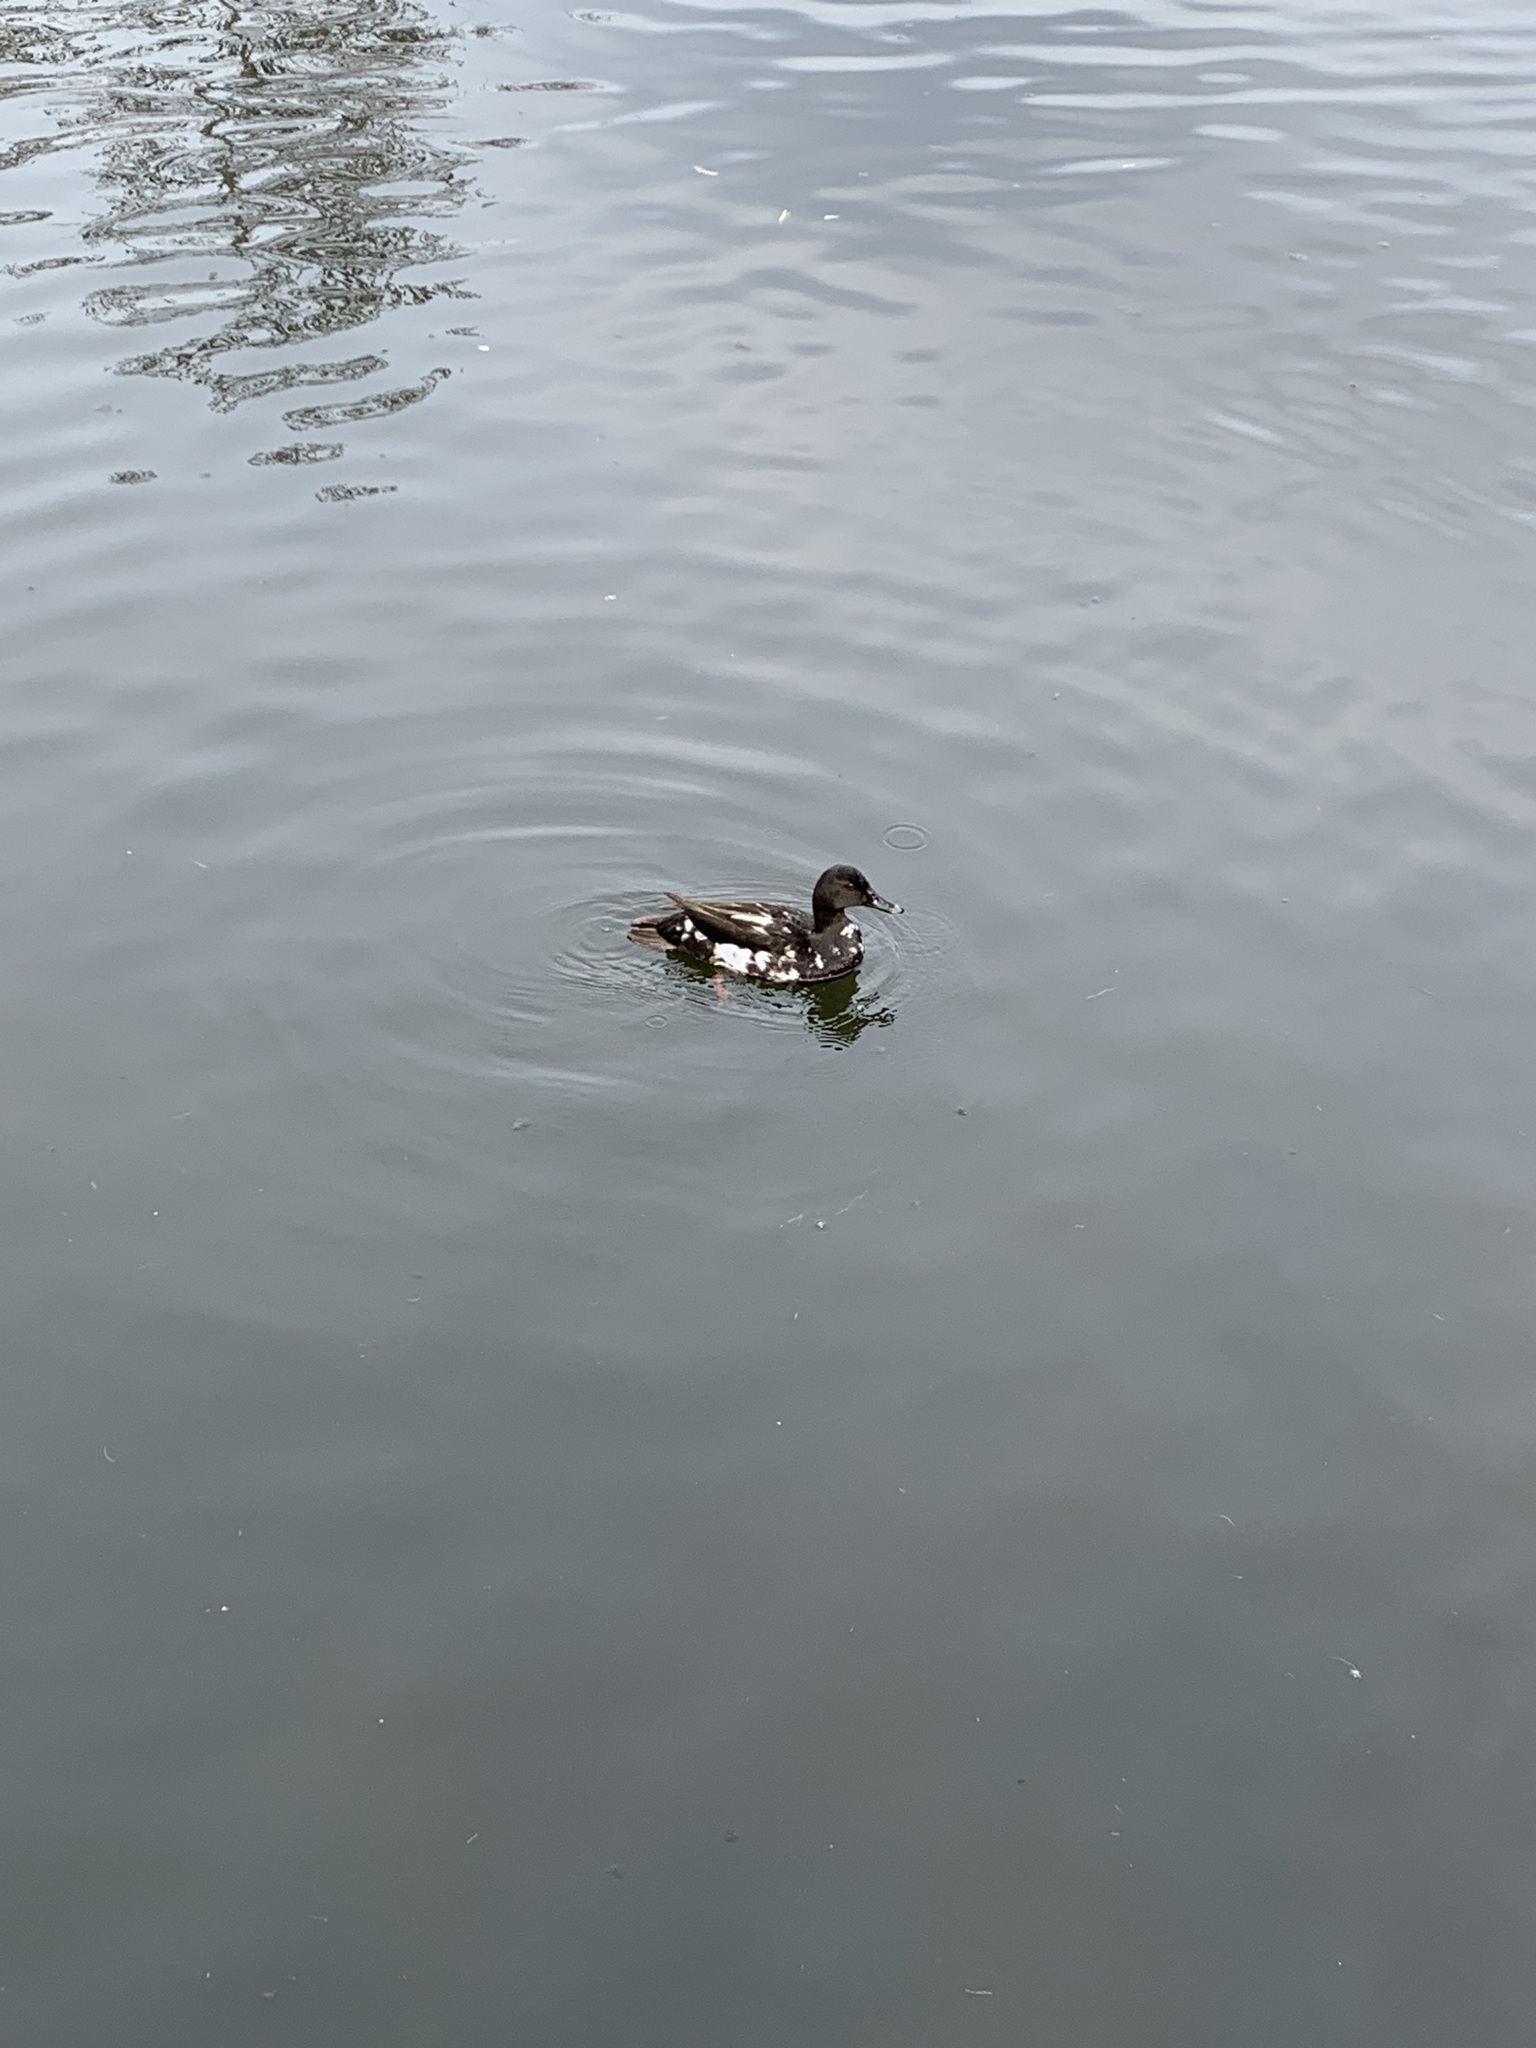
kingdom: Animalia
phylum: Chordata
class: Aves
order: Anseriformes
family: Anatidae
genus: Anas
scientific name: Anas platyrhynchos
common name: Mallard
